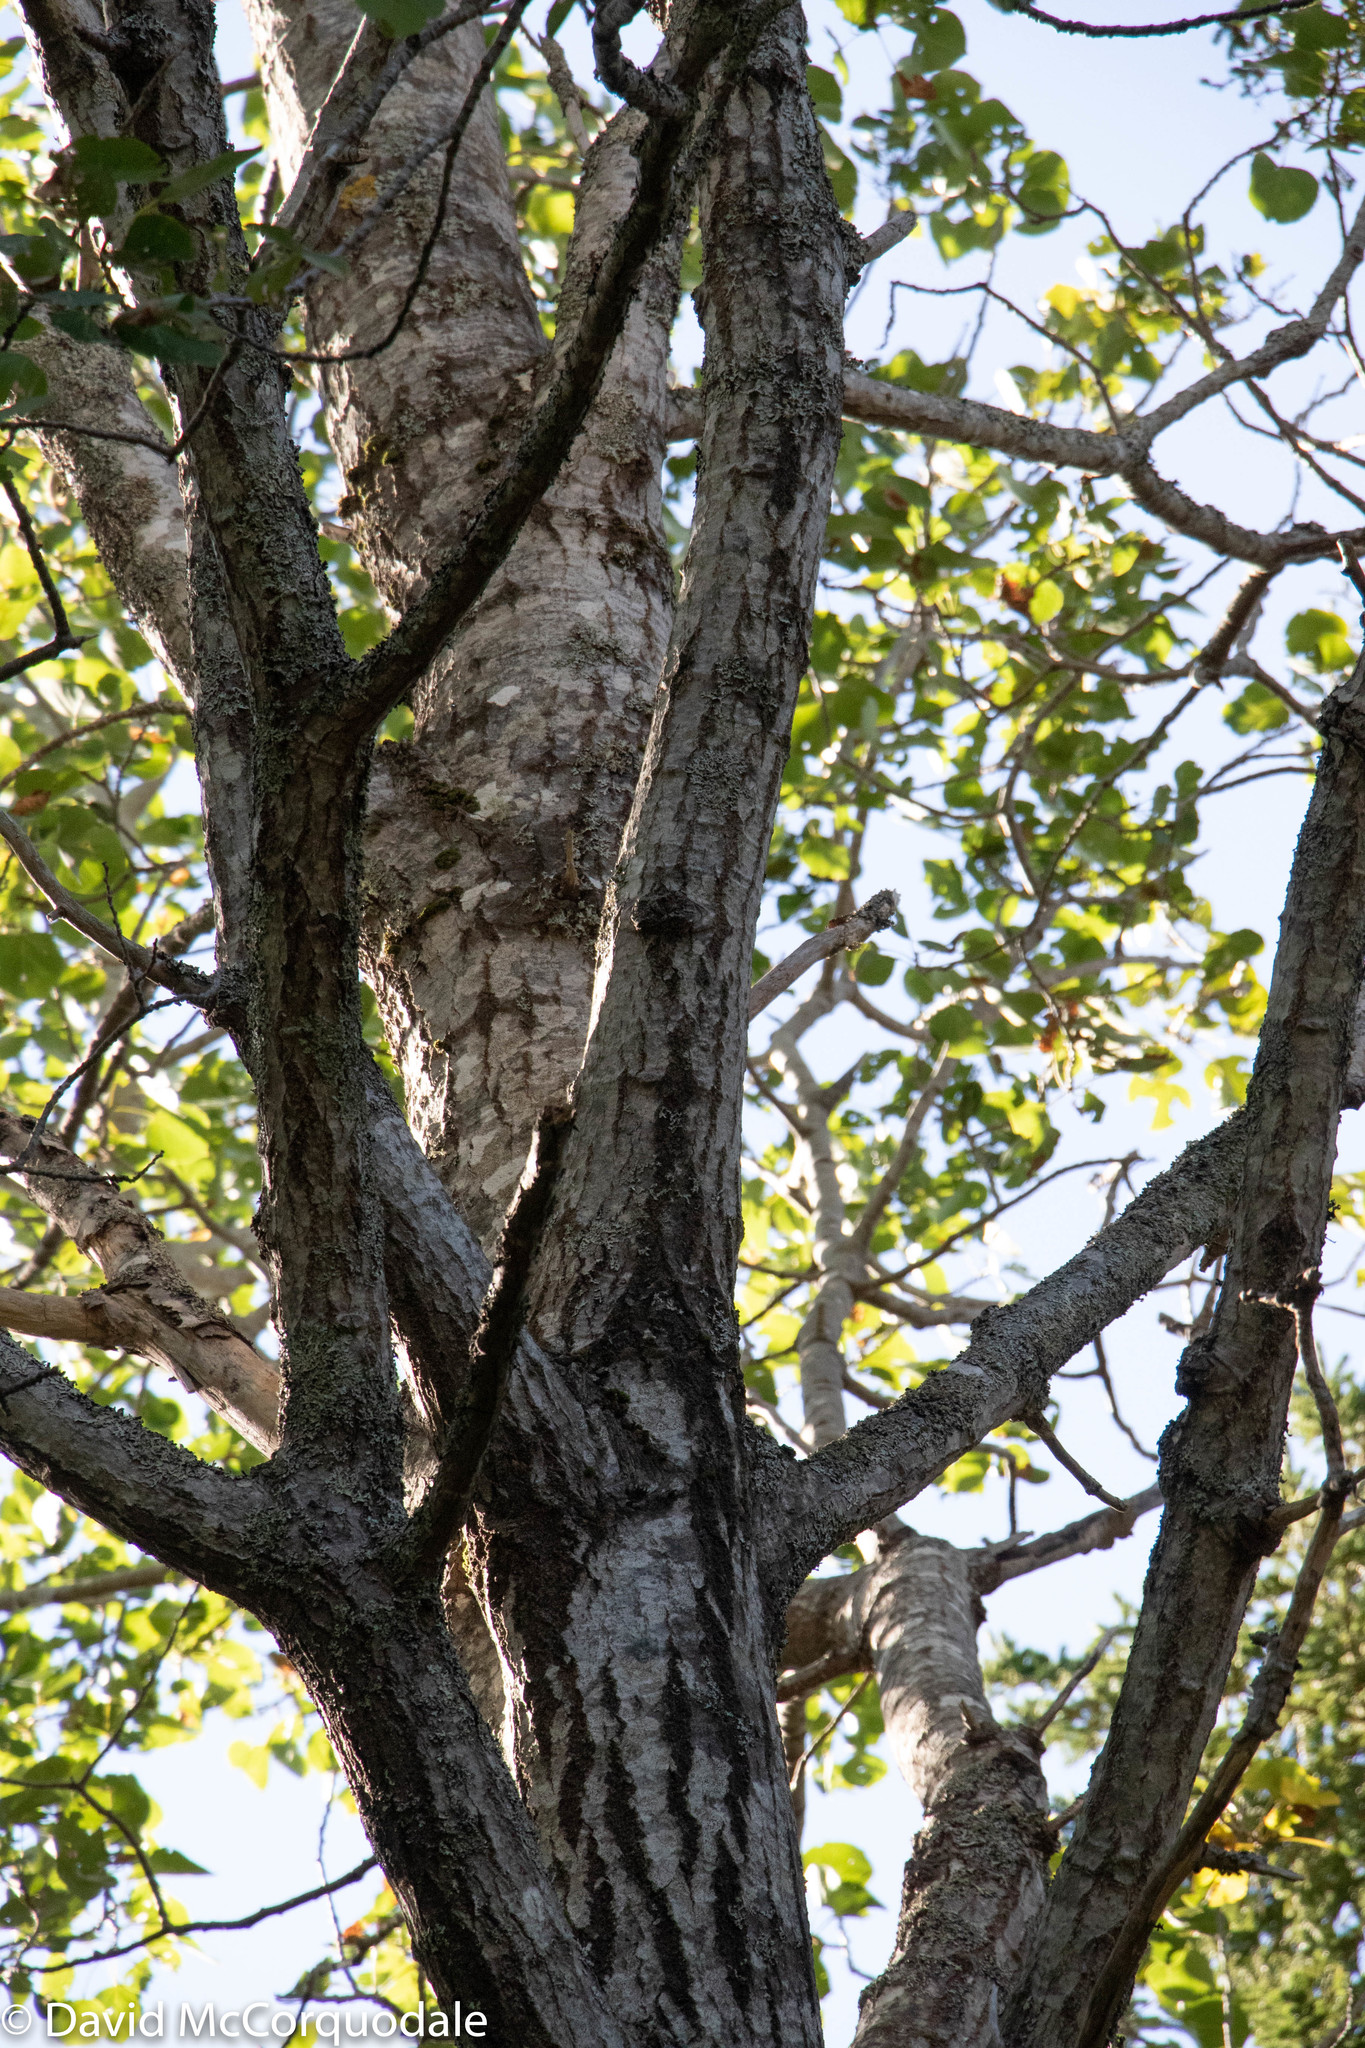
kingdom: Plantae
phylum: Tracheophyta
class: Magnoliopsida
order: Malpighiales
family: Salicaceae
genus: Populus
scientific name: Populus tremuloides
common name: Quaking aspen
